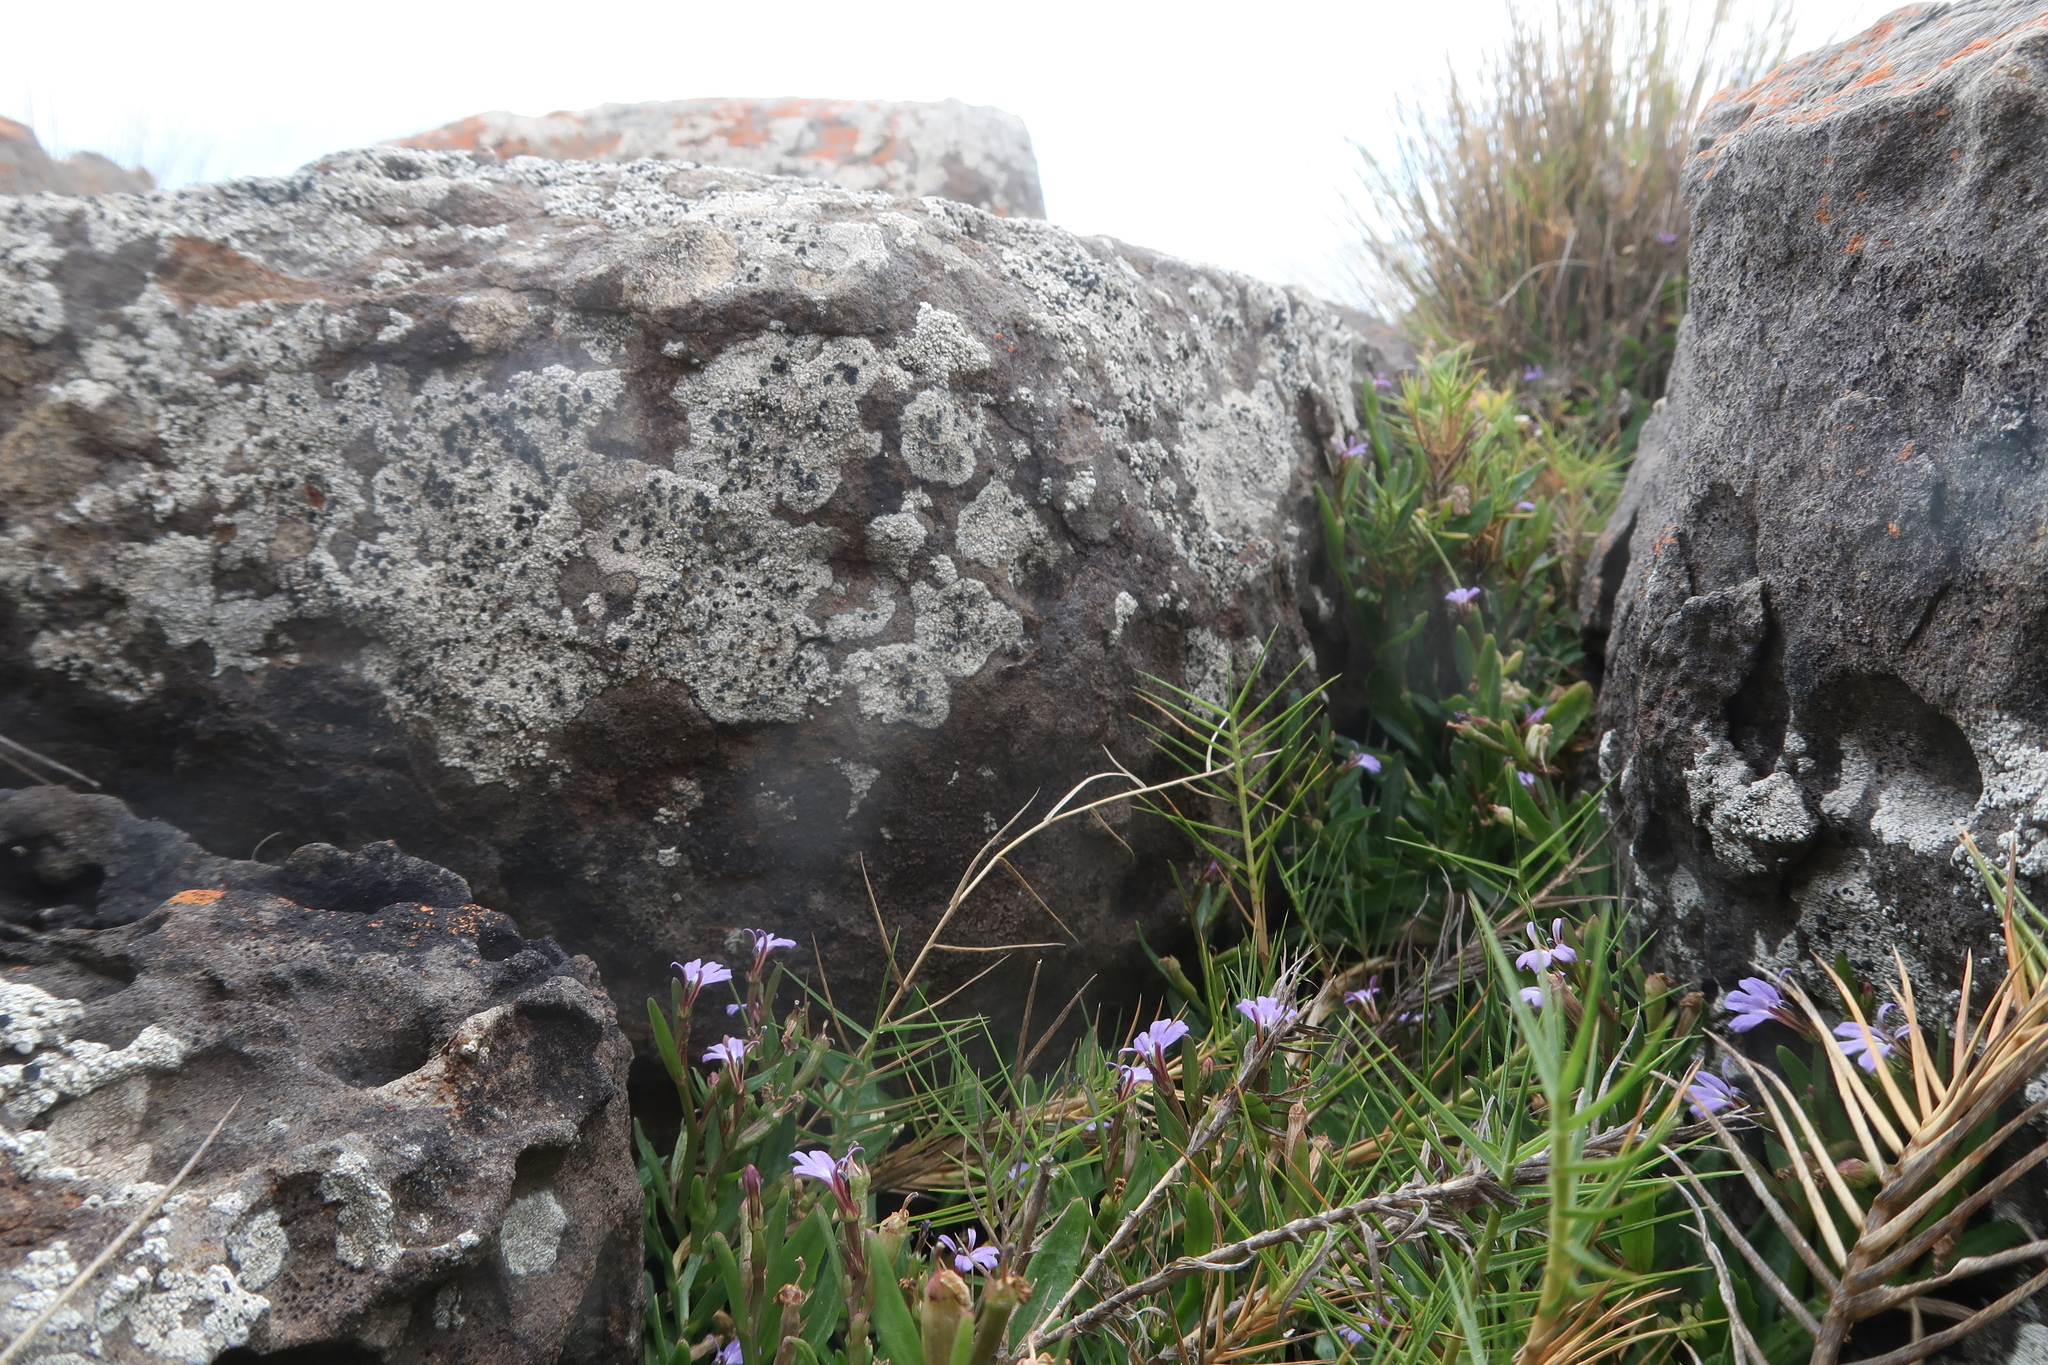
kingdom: Plantae
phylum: Tracheophyta
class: Magnoliopsida
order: Asterales
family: Campanulaceae
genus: Lobelia
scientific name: Lobelia anceps
